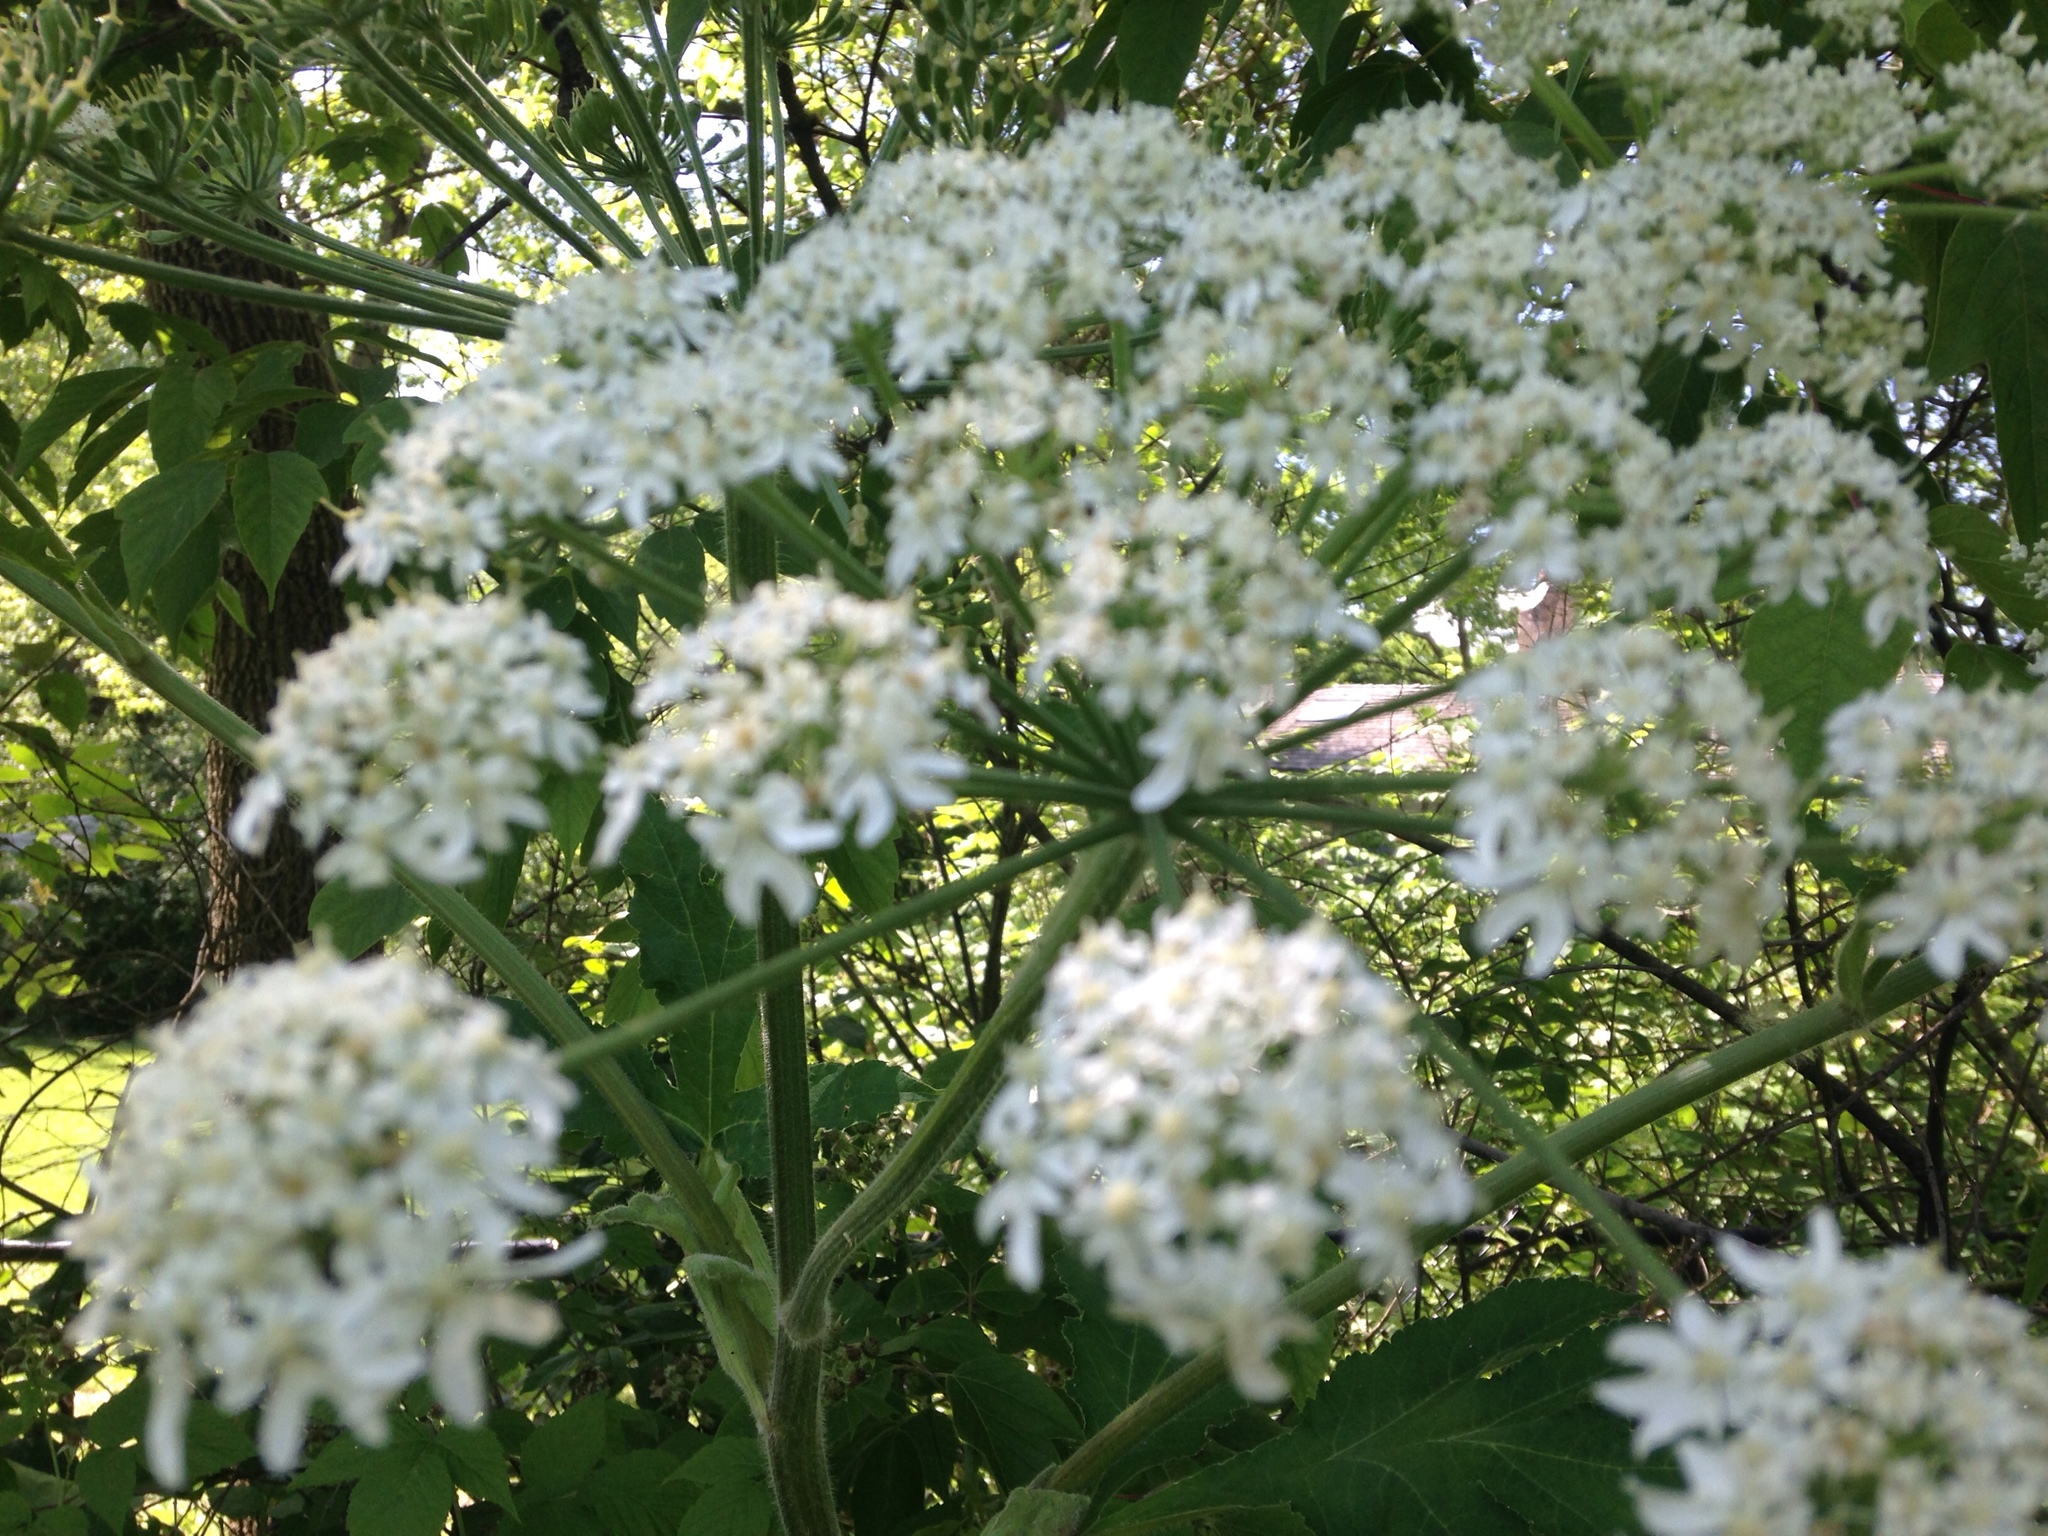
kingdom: Plantae
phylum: Tracheophyta
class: Magnoliopsida
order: Apiales
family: Apiaceae
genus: Heracleum
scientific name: Heracleum maximum
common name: American cow parsnip
